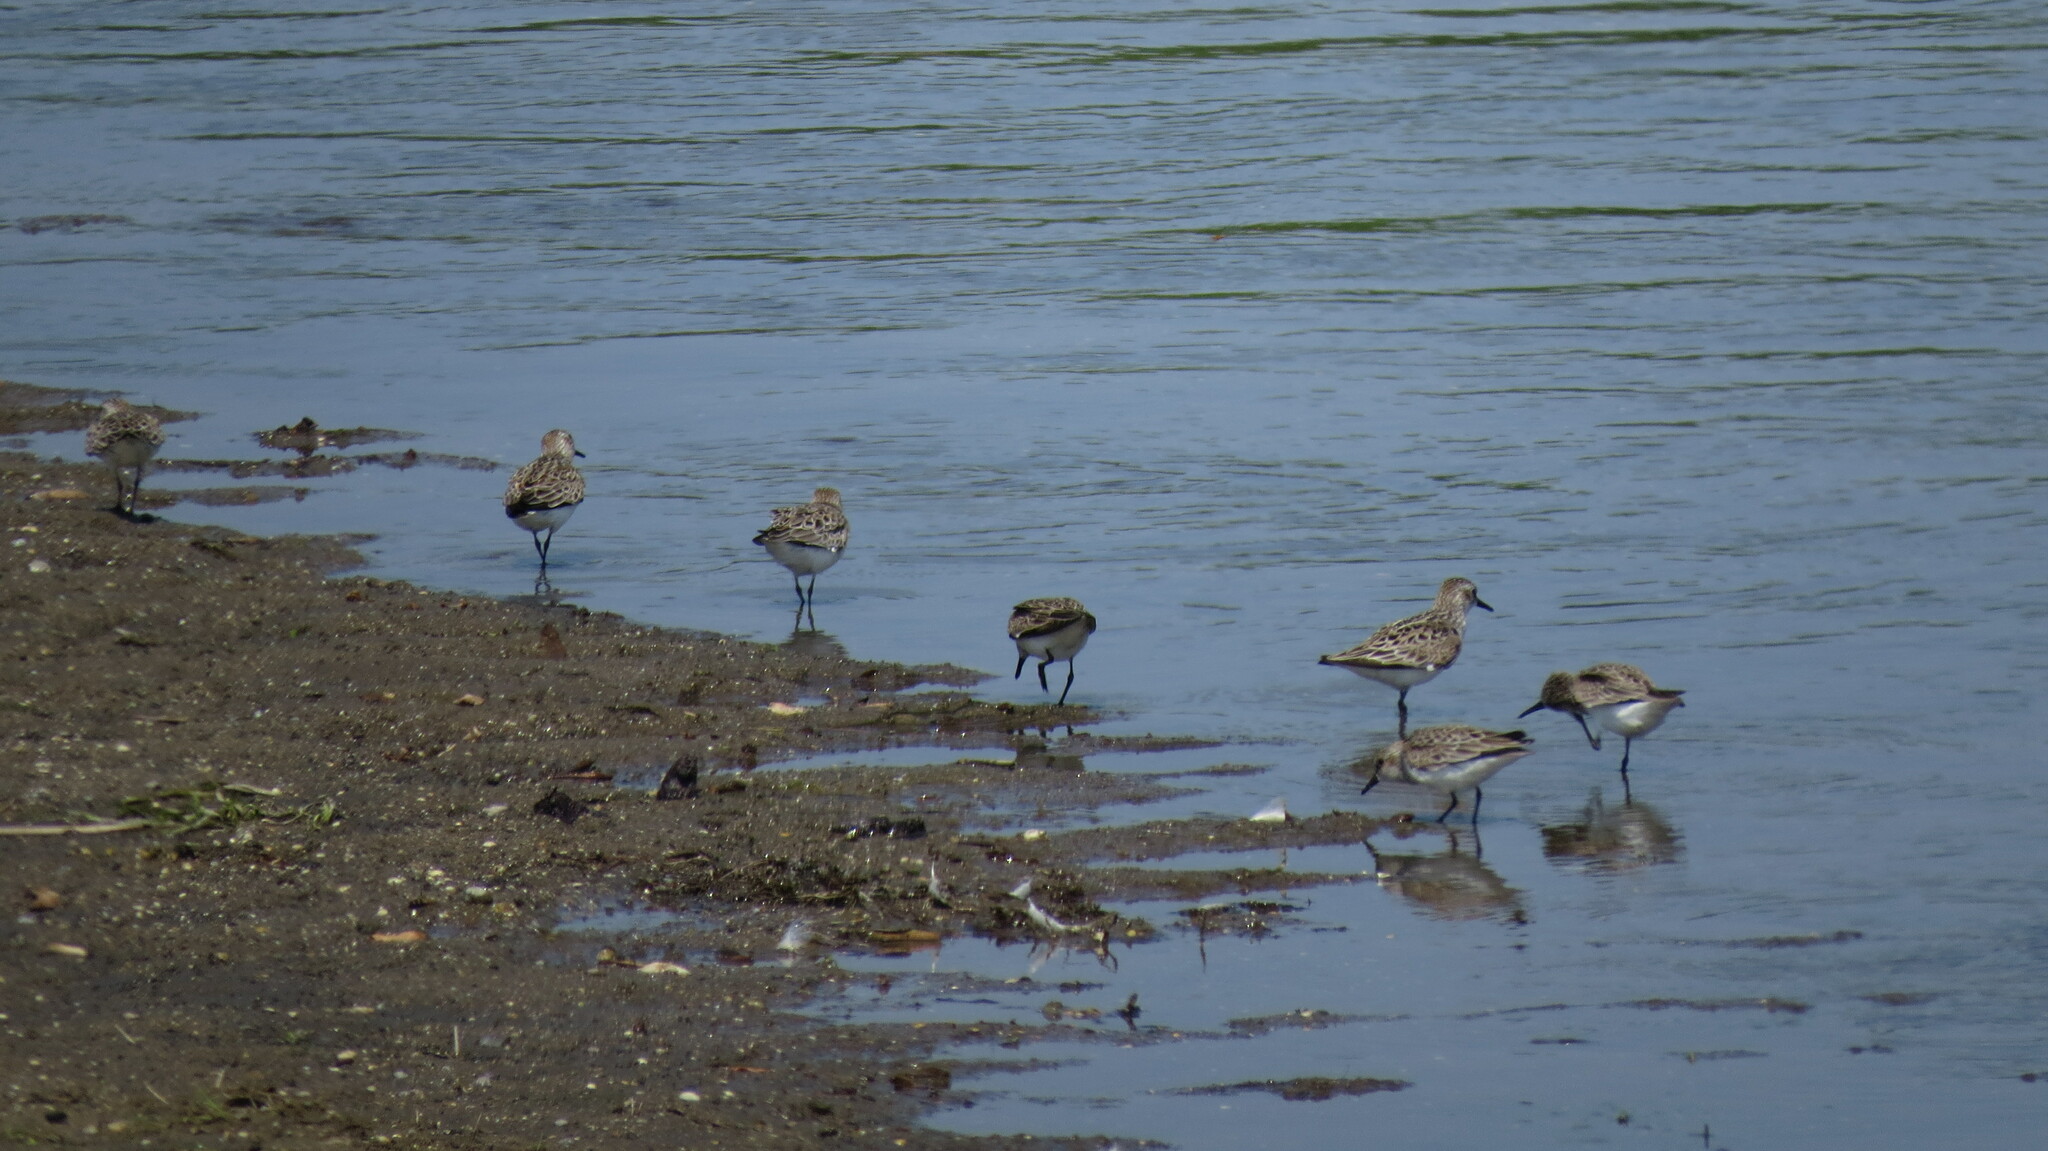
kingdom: Animalia
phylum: Chordata
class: Aves
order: Charadriiformes
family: Scolopacidae
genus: Calidris
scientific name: Calidris pusilla
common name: Semipalmated sandpiper
